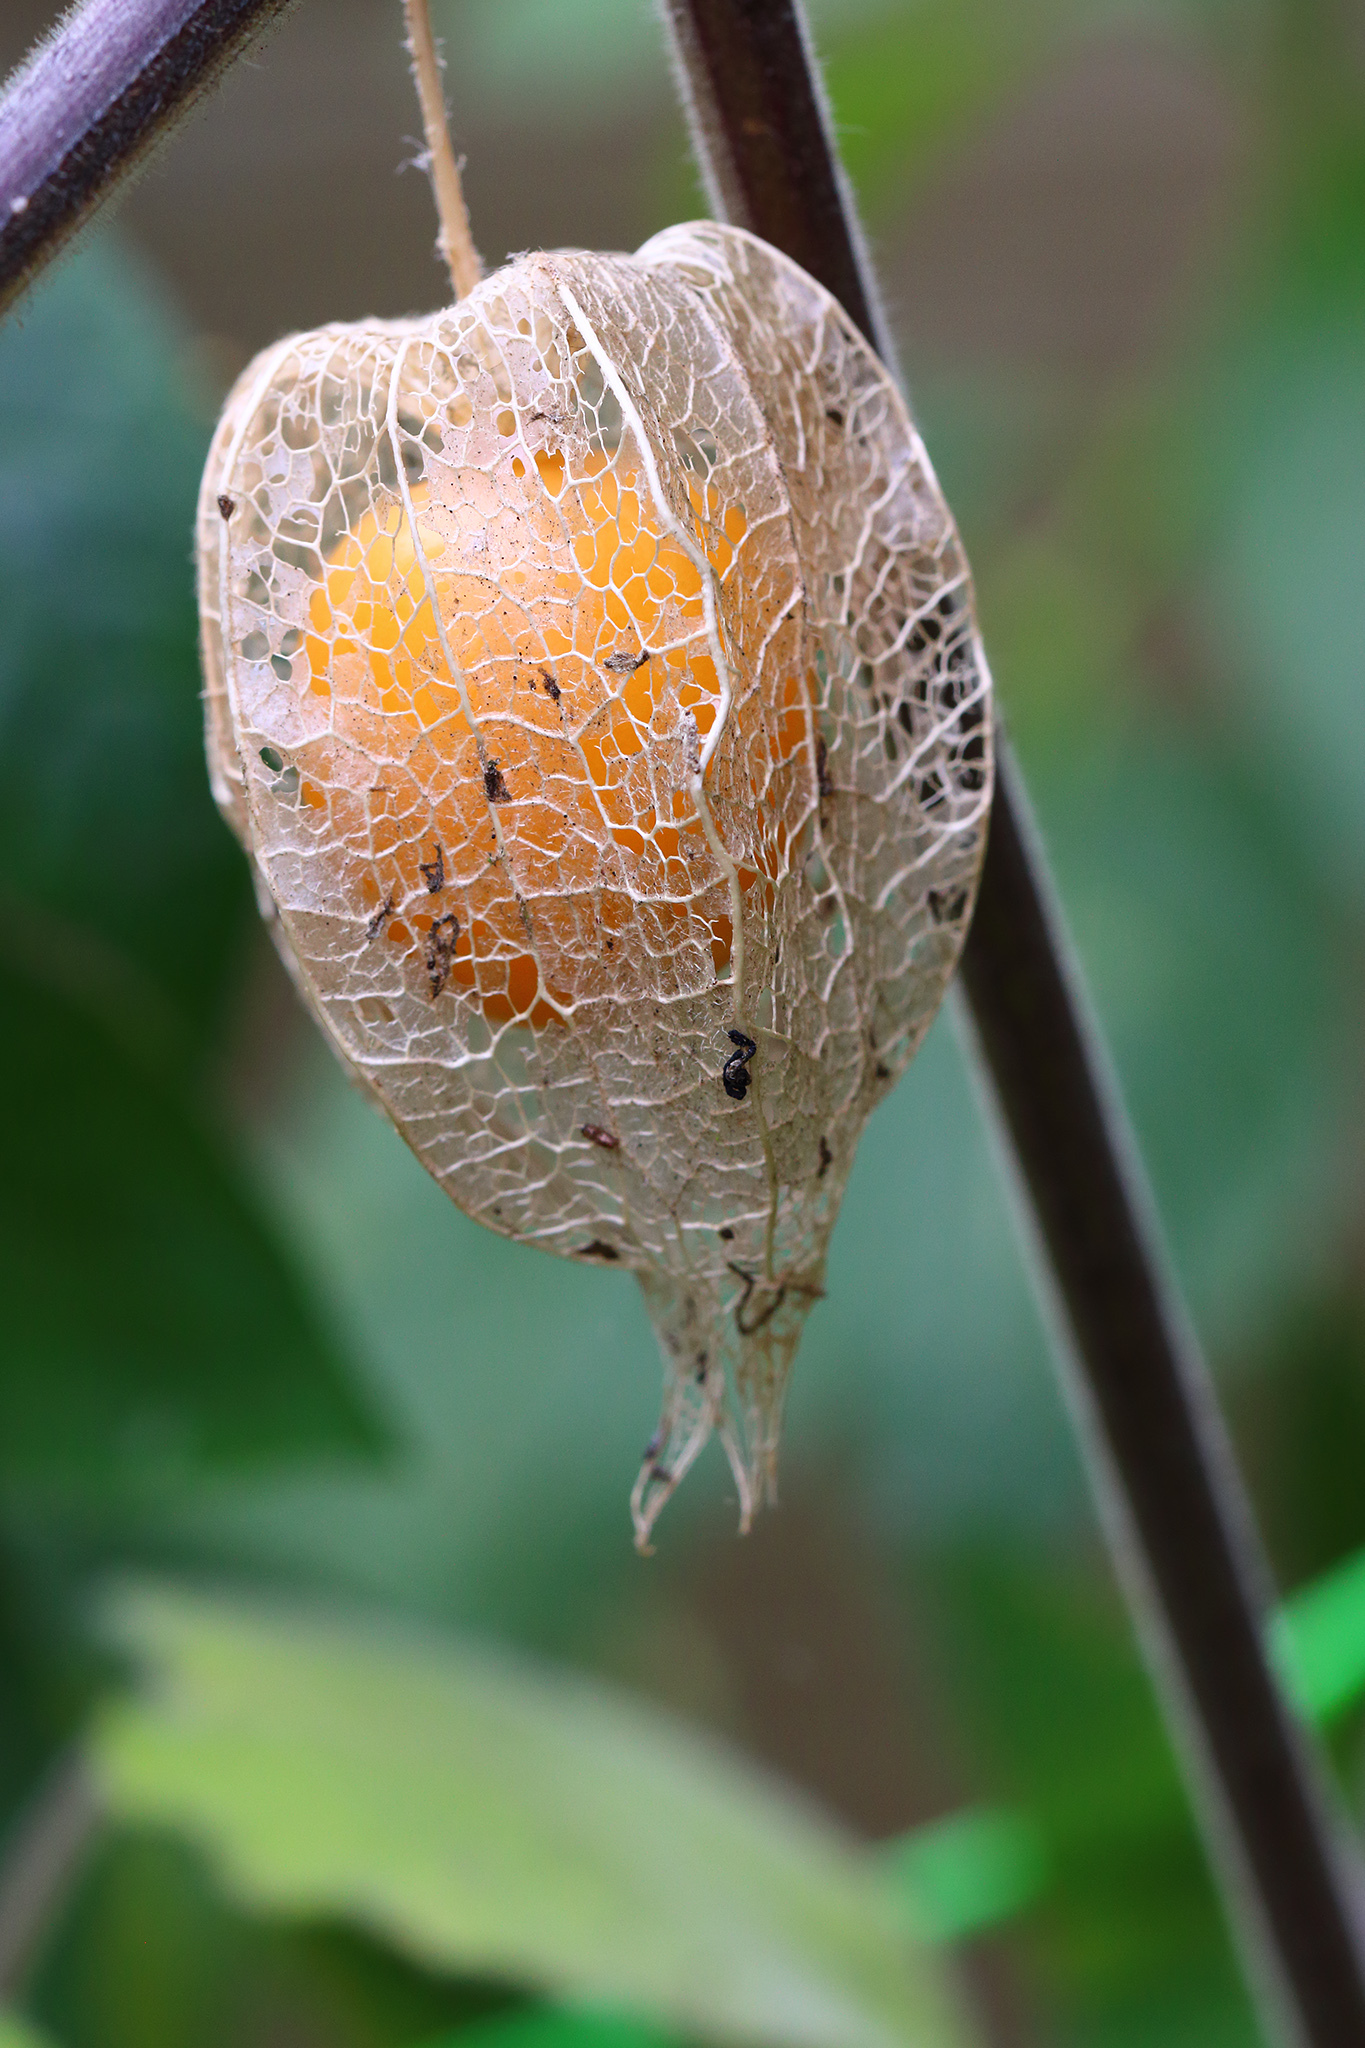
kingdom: Plantae
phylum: Tracheophyta
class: Magnoliopsida
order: Solanales
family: Solanaceae
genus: Physalis
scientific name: Physalis peruviana
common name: Cape-gooseberry
